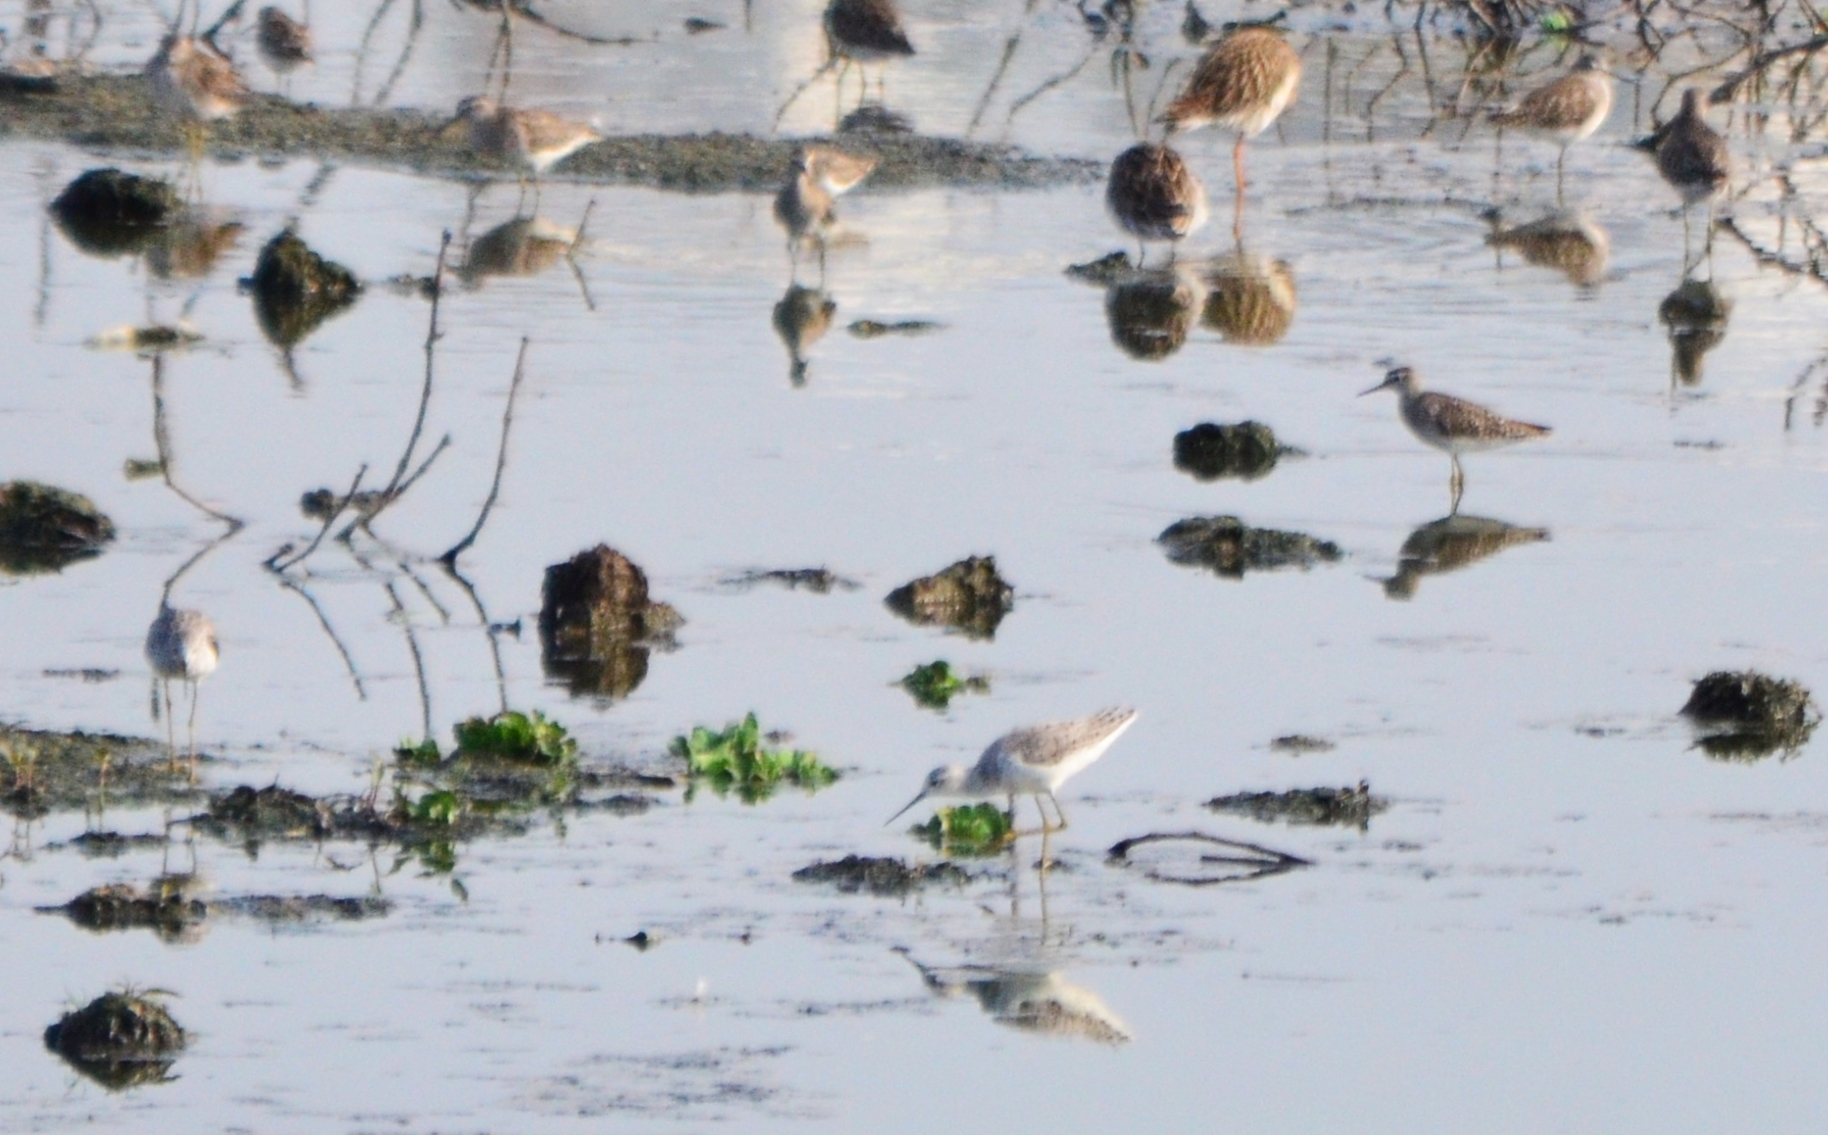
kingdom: Animalia
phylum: Chordata
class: Aves
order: Charadriiformes
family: Scolopacidae
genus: Tringa
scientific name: Tringa glareola
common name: Wood sandpiper
